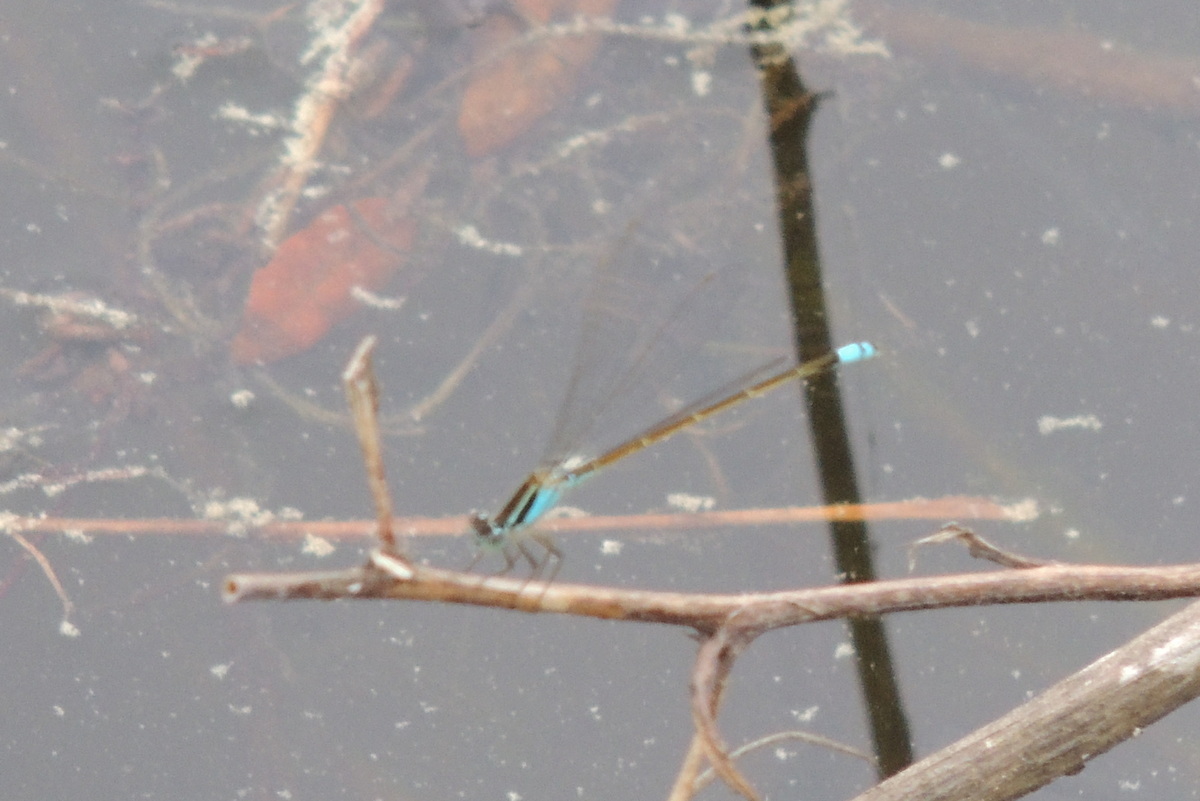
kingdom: Animalia
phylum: Arthropoda
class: Insecta
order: Odonata
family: Coenagrionidae
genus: Ischnura
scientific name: Ischnura ramburii
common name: Rambur's forktail
